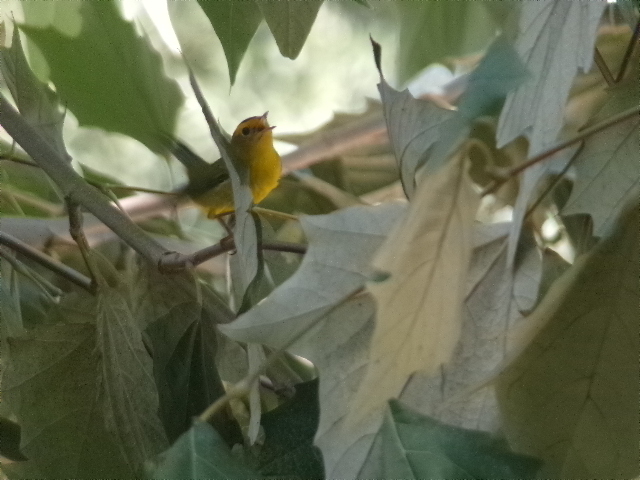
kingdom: Animalia
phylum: Chordata
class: Aves
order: Passeriformes
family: Parulidae
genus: Cardellina
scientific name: Cardellina pusilla
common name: Wilson's warbler
